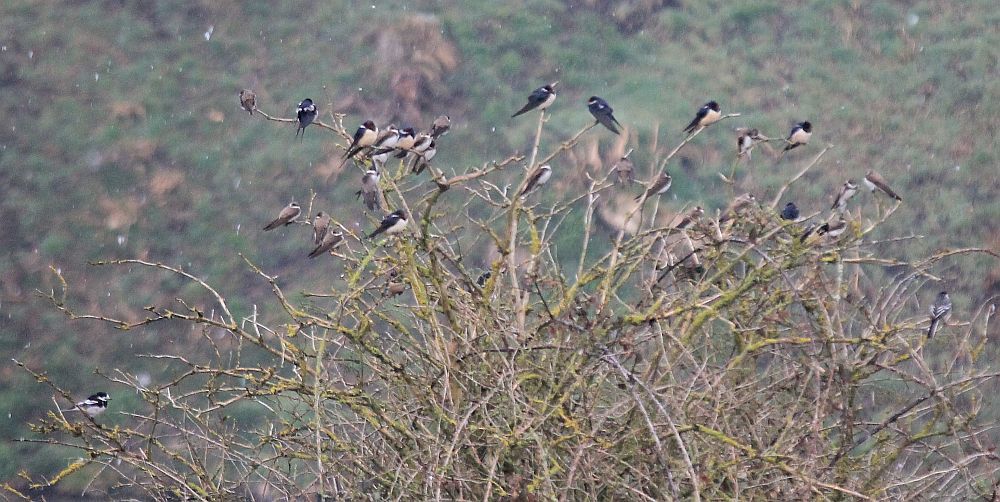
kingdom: Animalia
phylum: Chordata
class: Aves
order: Passeriformes
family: Hirundinidae
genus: Hirundo
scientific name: Hirundo rustica
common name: Barn swallow
